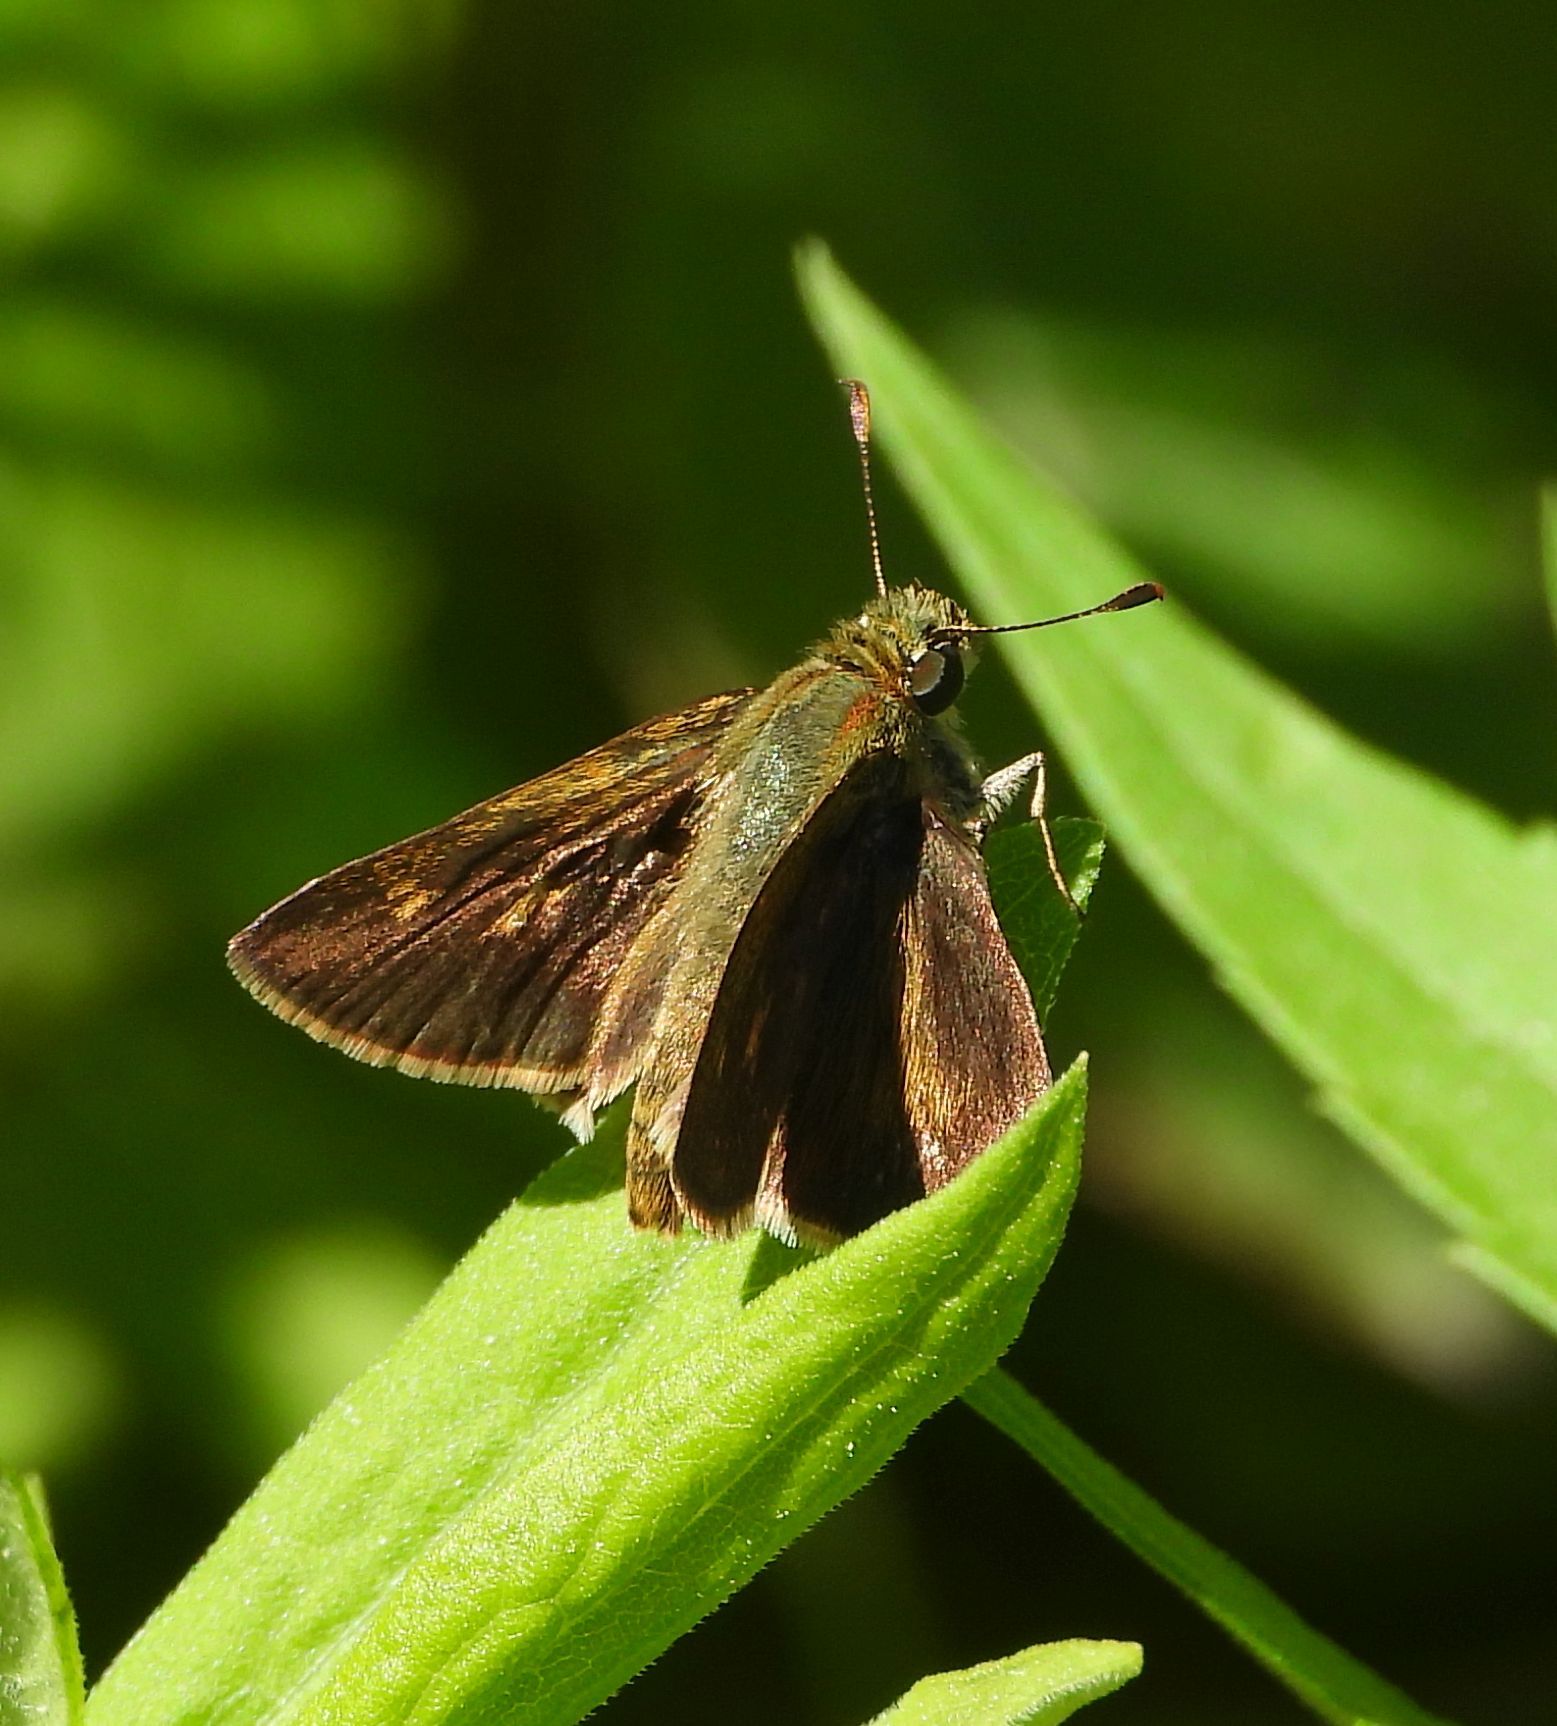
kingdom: Animalia
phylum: Arthropoda
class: Insecta
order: Lepidoptera
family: Hesperiidae
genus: Polites
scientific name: Polites egeremet
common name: Northern broken-dash
